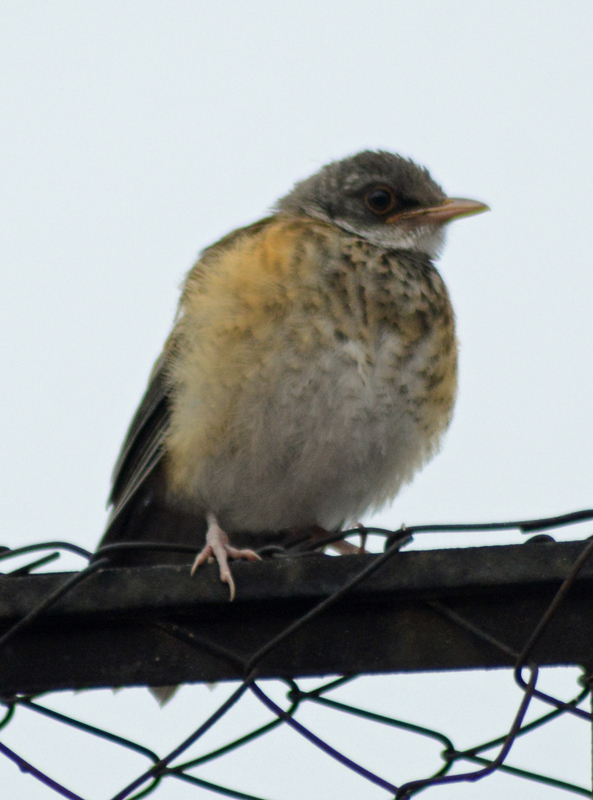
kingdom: Animalia
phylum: Chordata
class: Aves
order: Passeriformes
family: Turdidae
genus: Turdus
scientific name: Turdus rufopalliatus
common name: Rufous-backed robin
